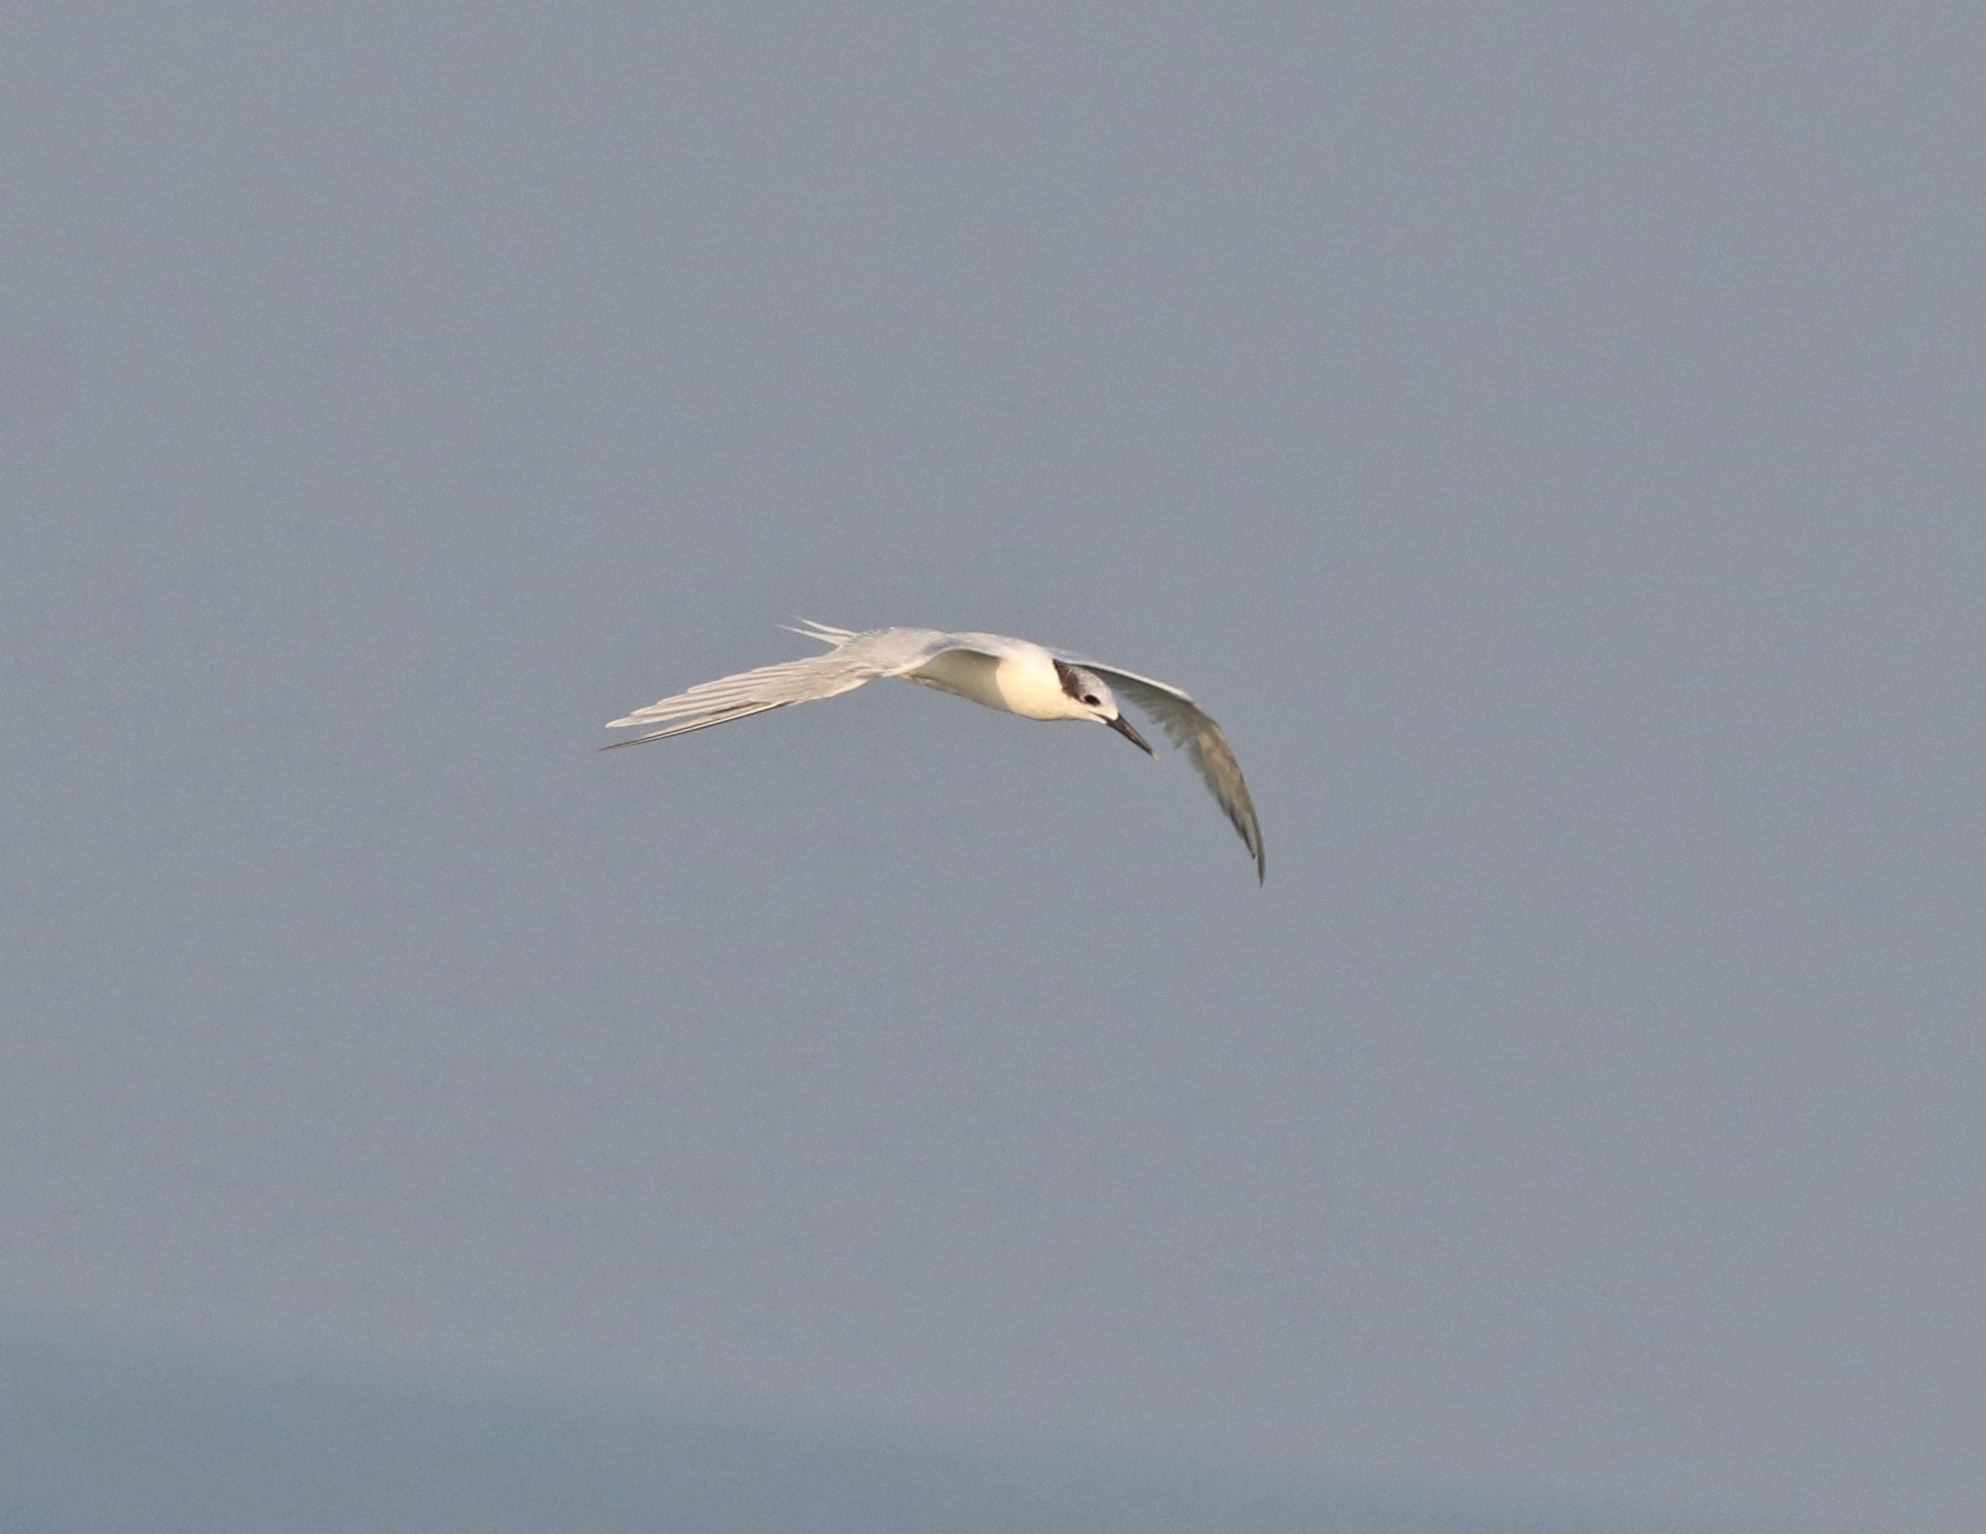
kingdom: Animalia
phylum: Chordata
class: Aves
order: Charadriiformes
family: Laridae
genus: Thalasseus
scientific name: Thalasseus sandvicensis
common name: Sandwich tern
